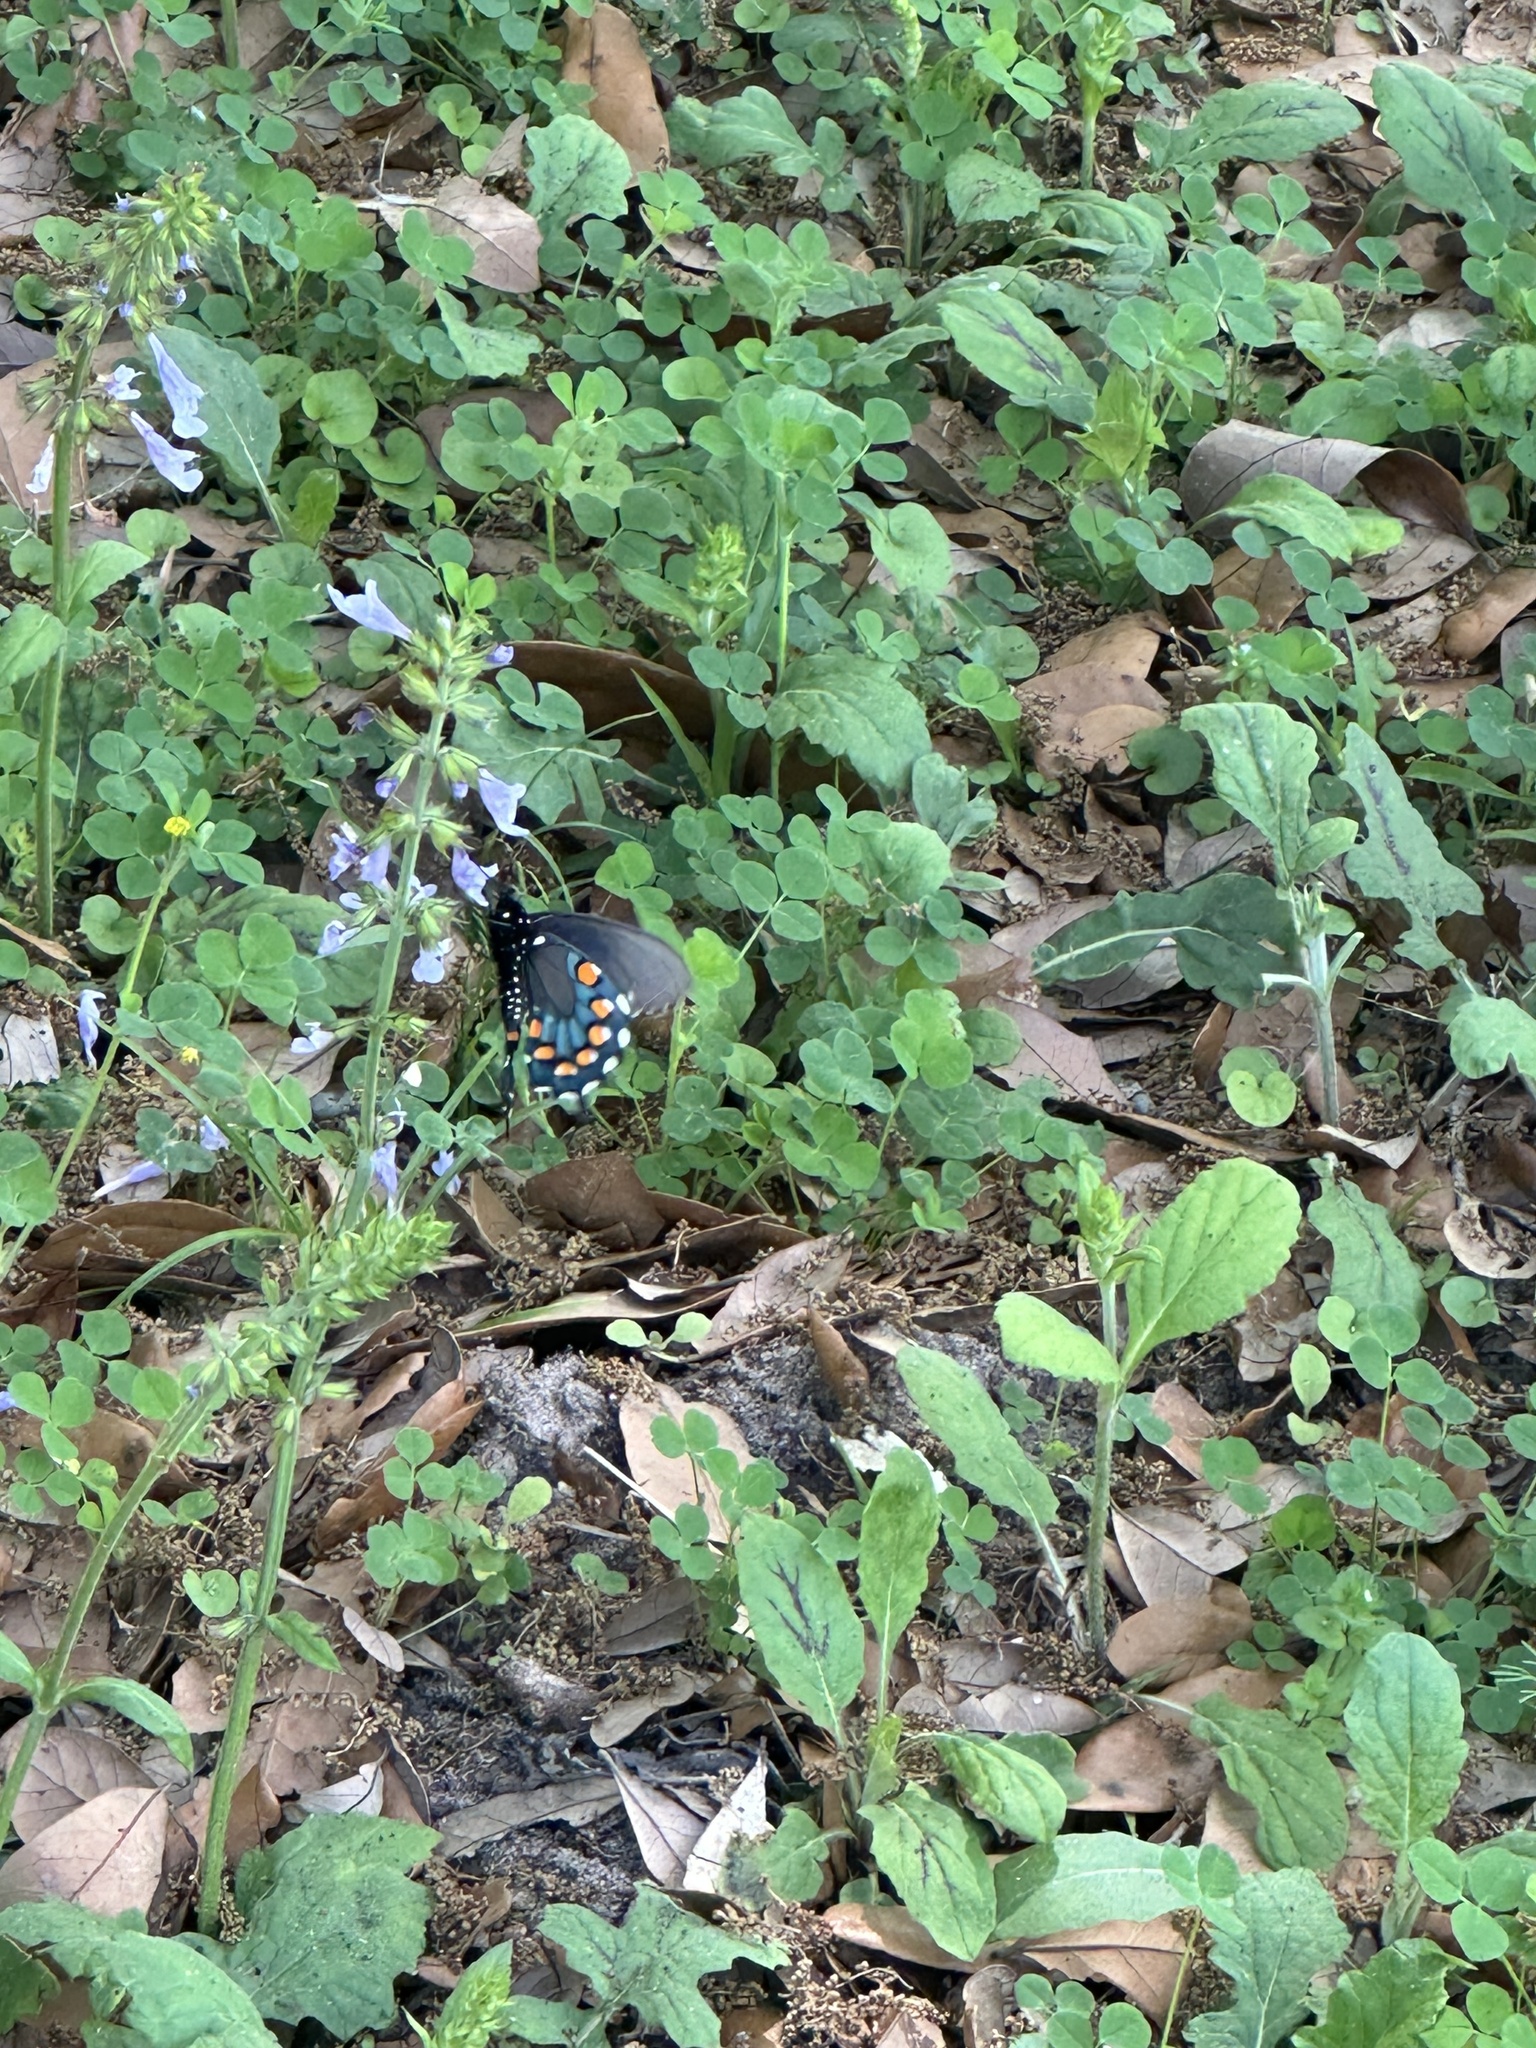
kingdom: Animalia
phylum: Arthropoda
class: Insecta
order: Lepidoptera
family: Papilionidae
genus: Battus
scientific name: Battus philenor
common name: Pipevine swallowtail
